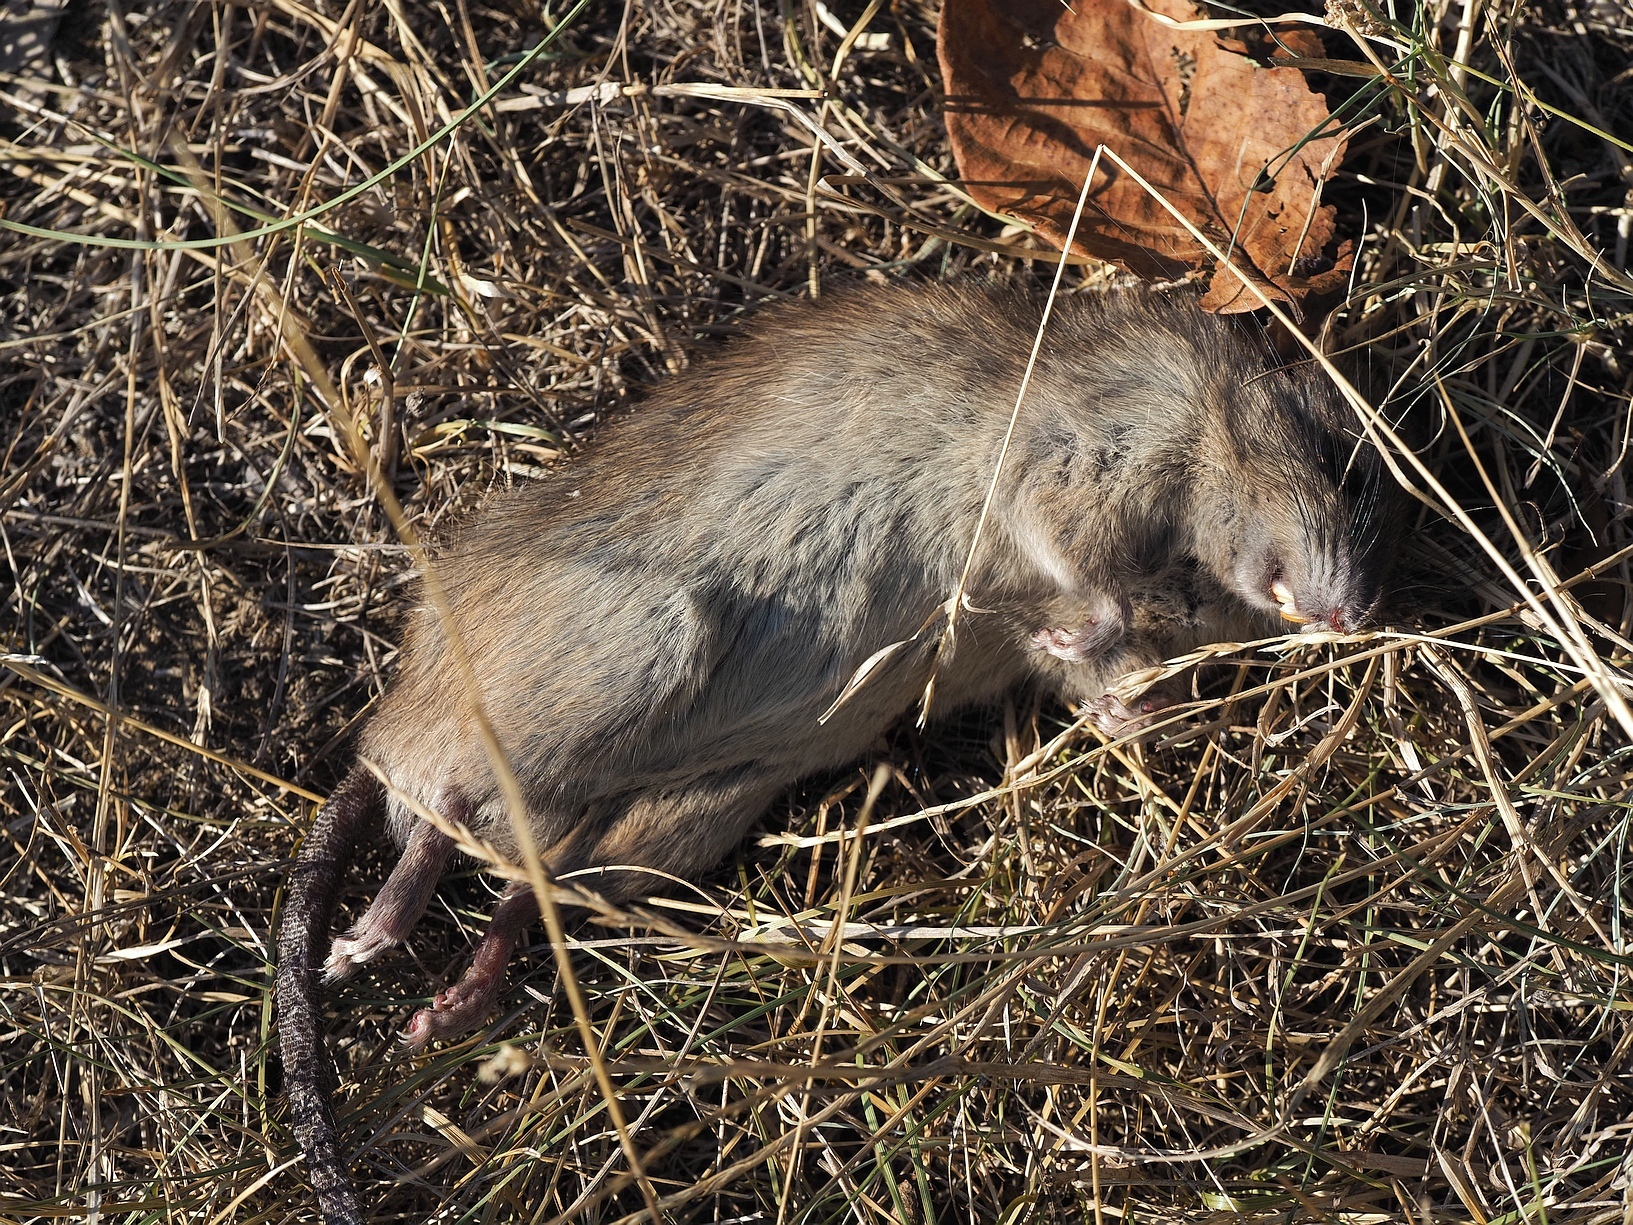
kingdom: Animalia
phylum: Chordata
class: Mammalia
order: Rodentia
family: Muridae
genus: Rattus
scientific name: Rattus norvegicus
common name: Brown rat
